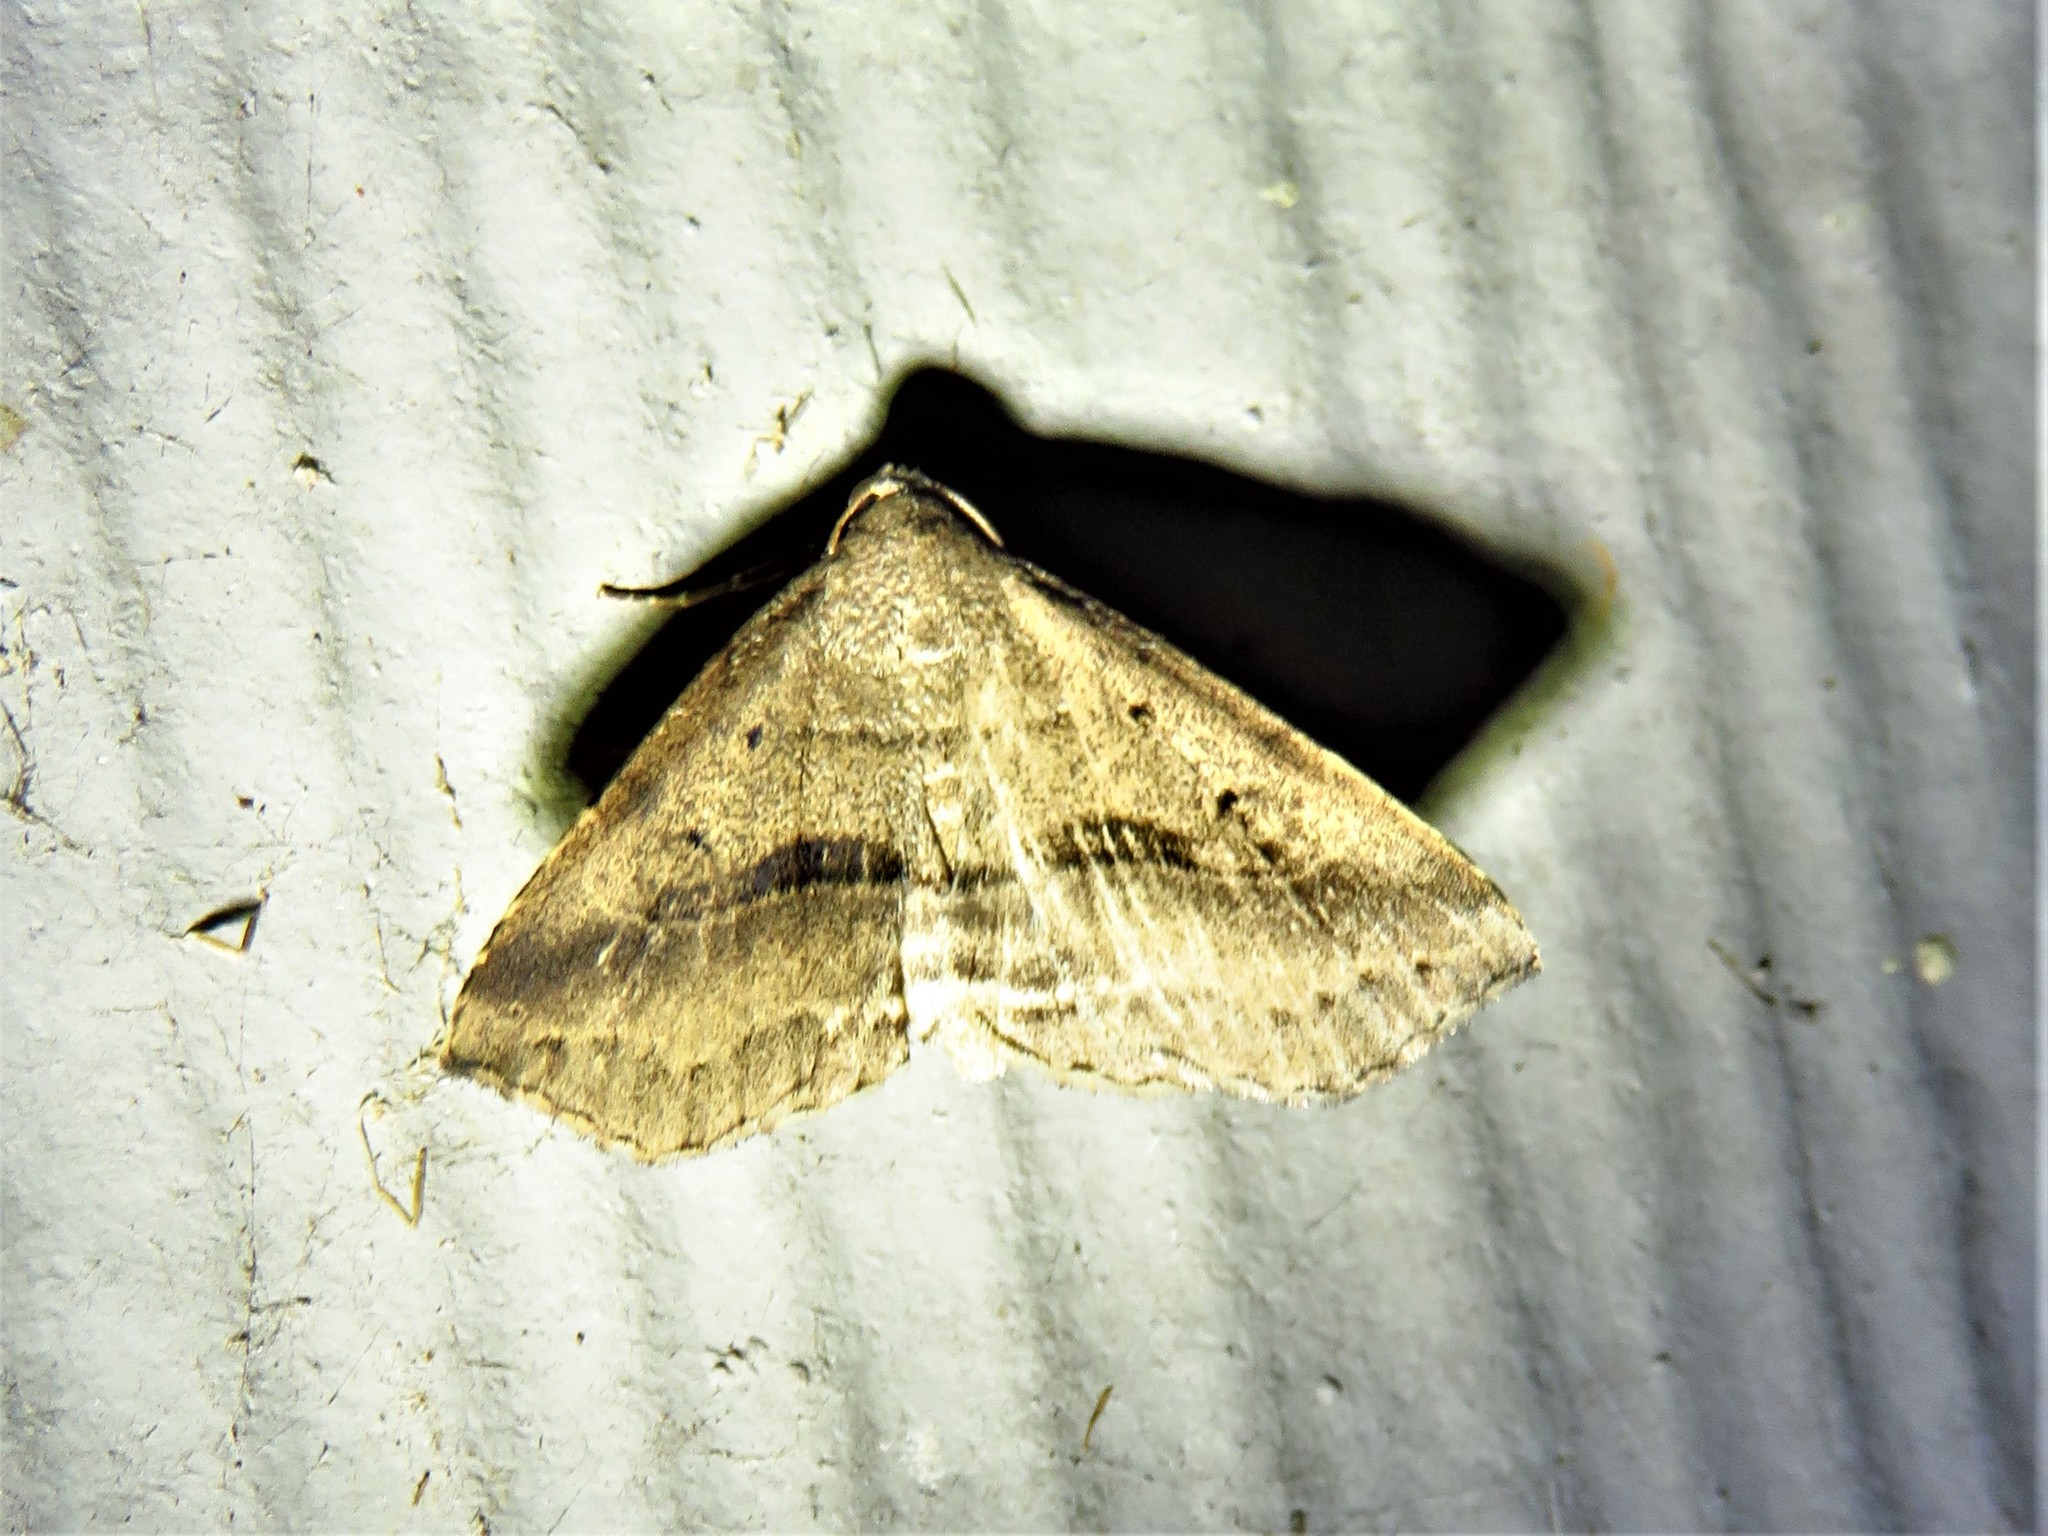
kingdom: Animalia
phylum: Arthropoda
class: Insecta
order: Lepidoptera
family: Erebidae
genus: Spargaloma
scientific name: Spargaloma perditalis
